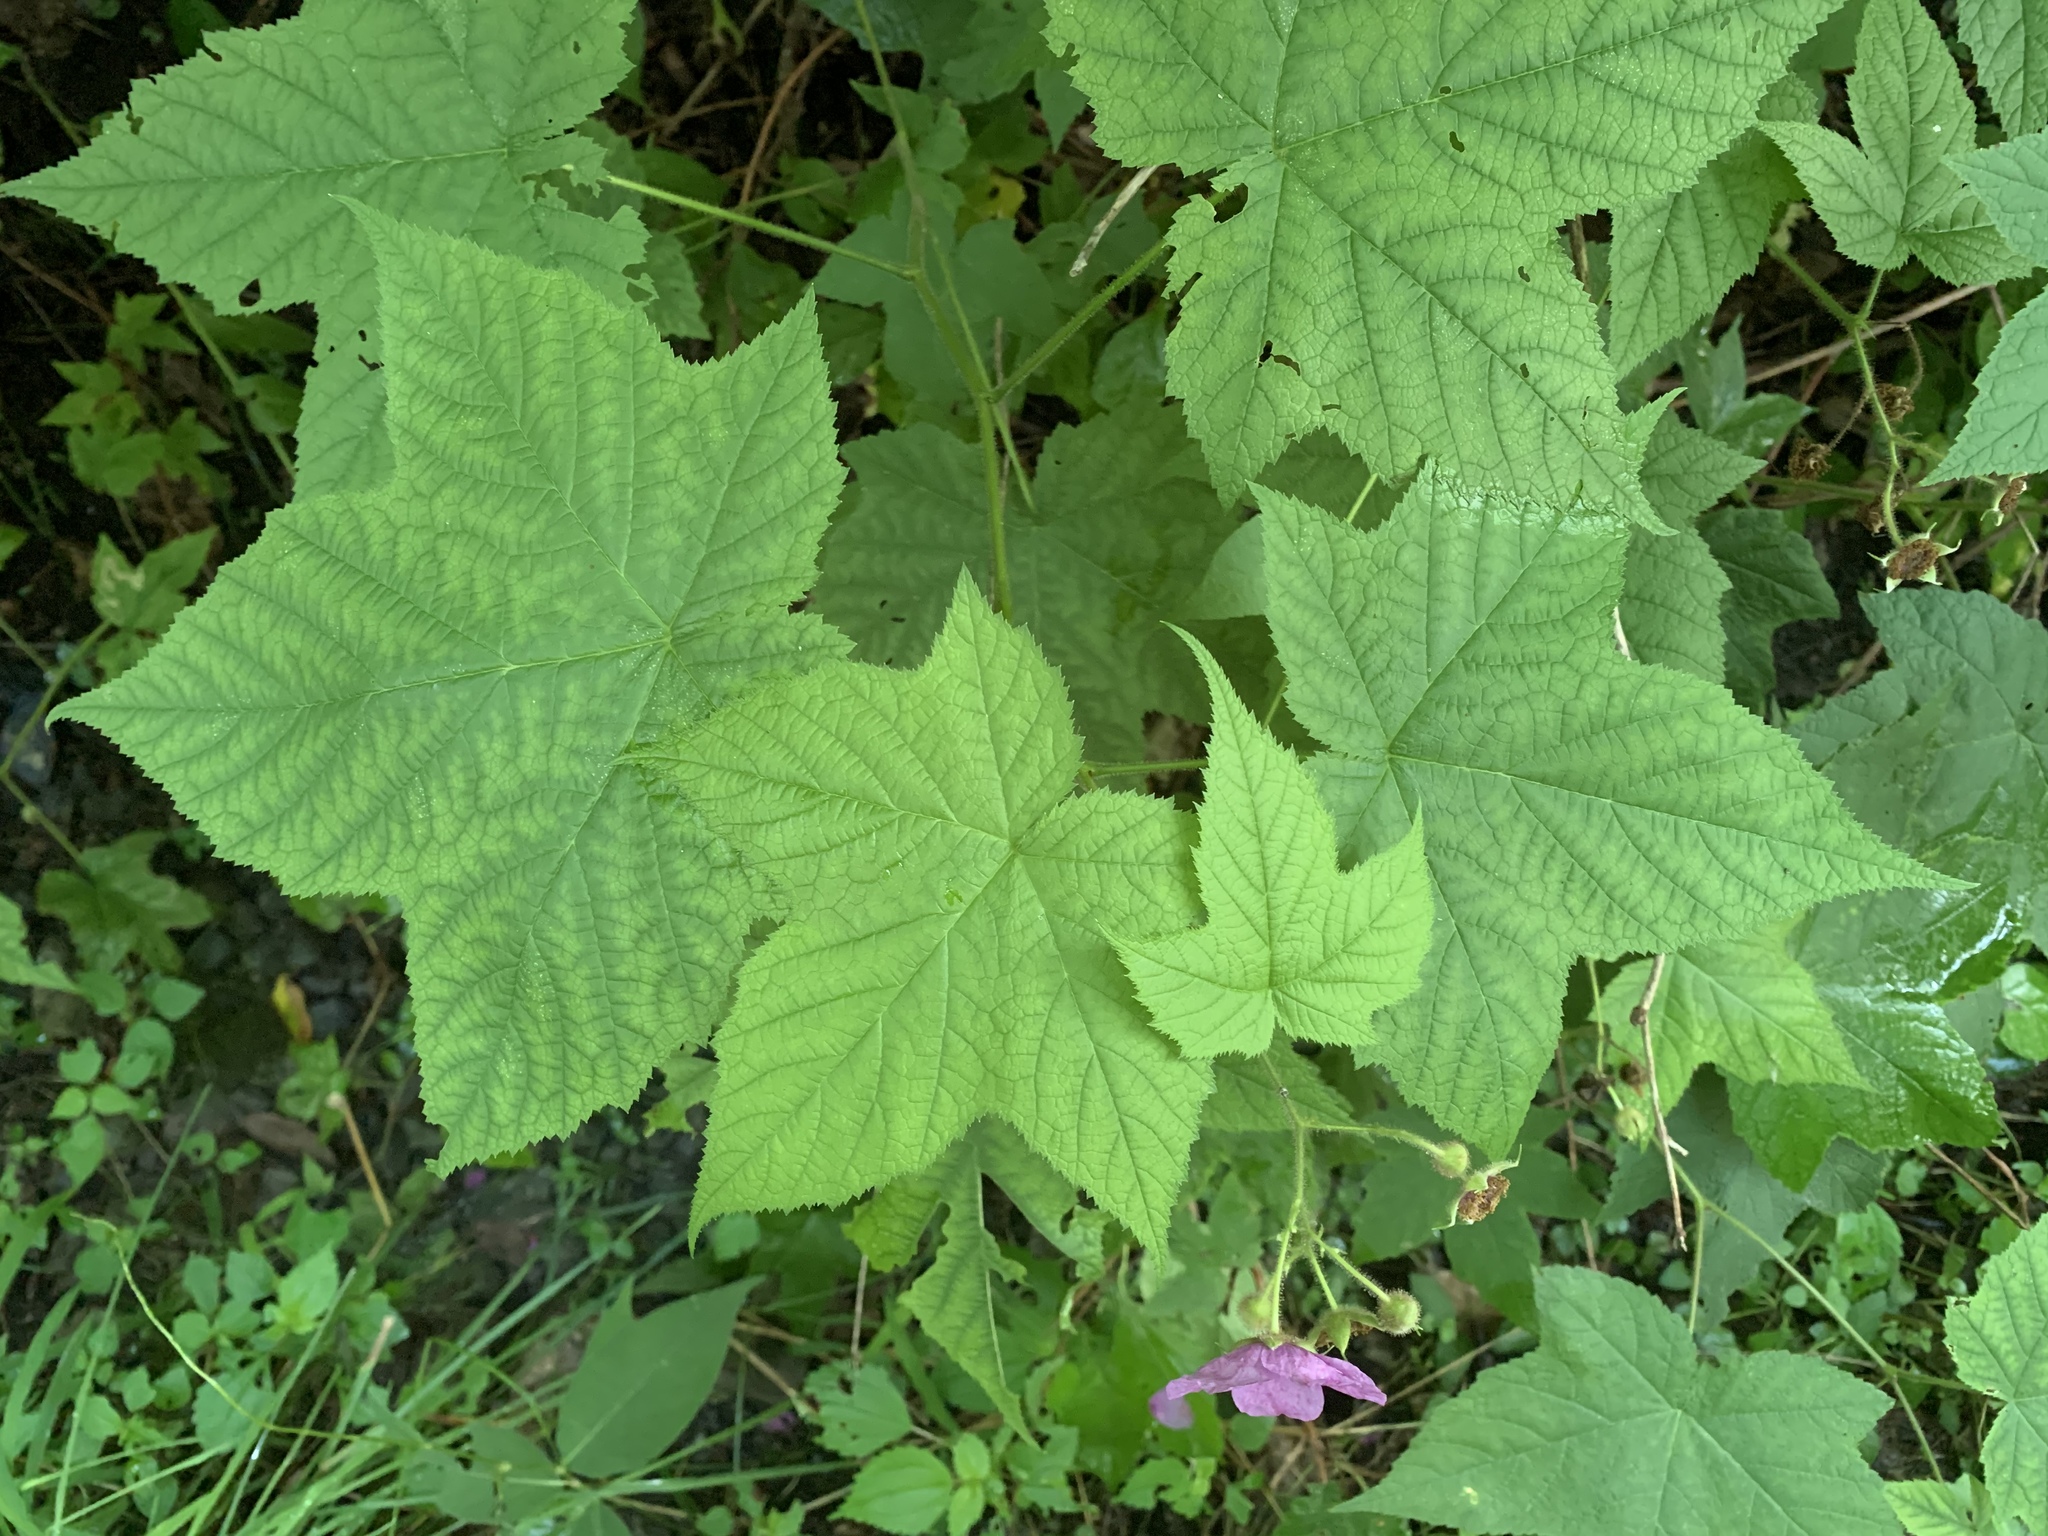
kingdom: Plantae
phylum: Tracheophyta
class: Magnoliopsida
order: Rosales
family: Rosaceae
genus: Rubus
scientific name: Rubus odoratus
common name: Purple-flowered raspberry
